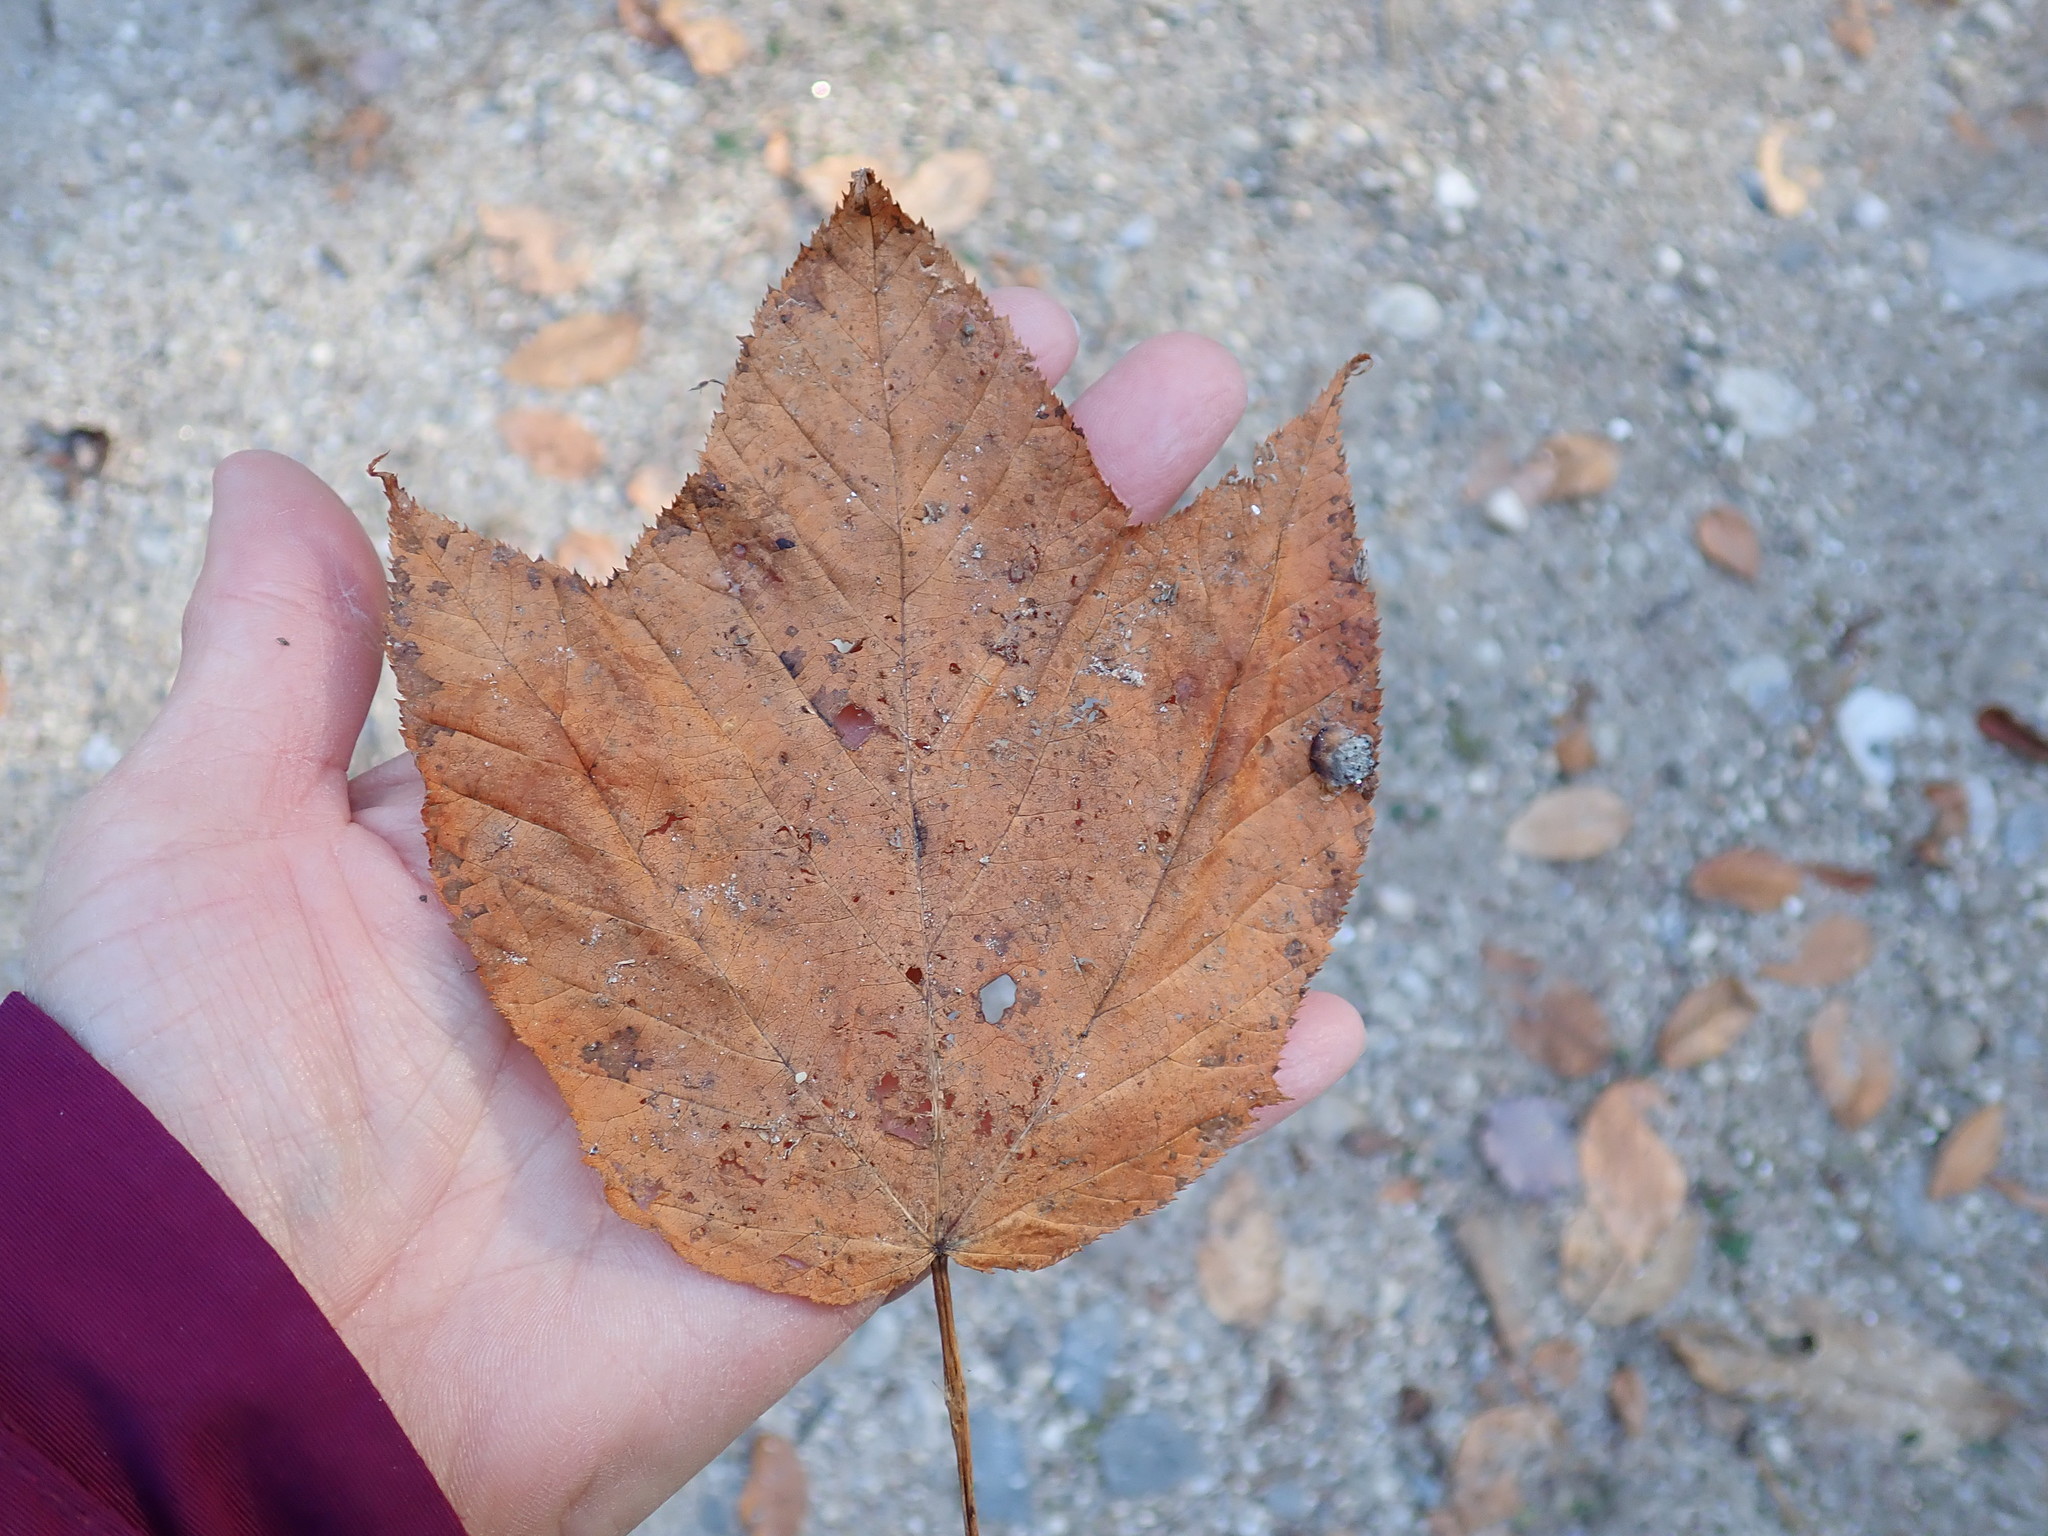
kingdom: Plantae
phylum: Tracheophyta
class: Magnoliopsida
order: Sapindales
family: Sapindaceae
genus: Acer
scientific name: Acer pensylvanicum
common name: Moosewood
